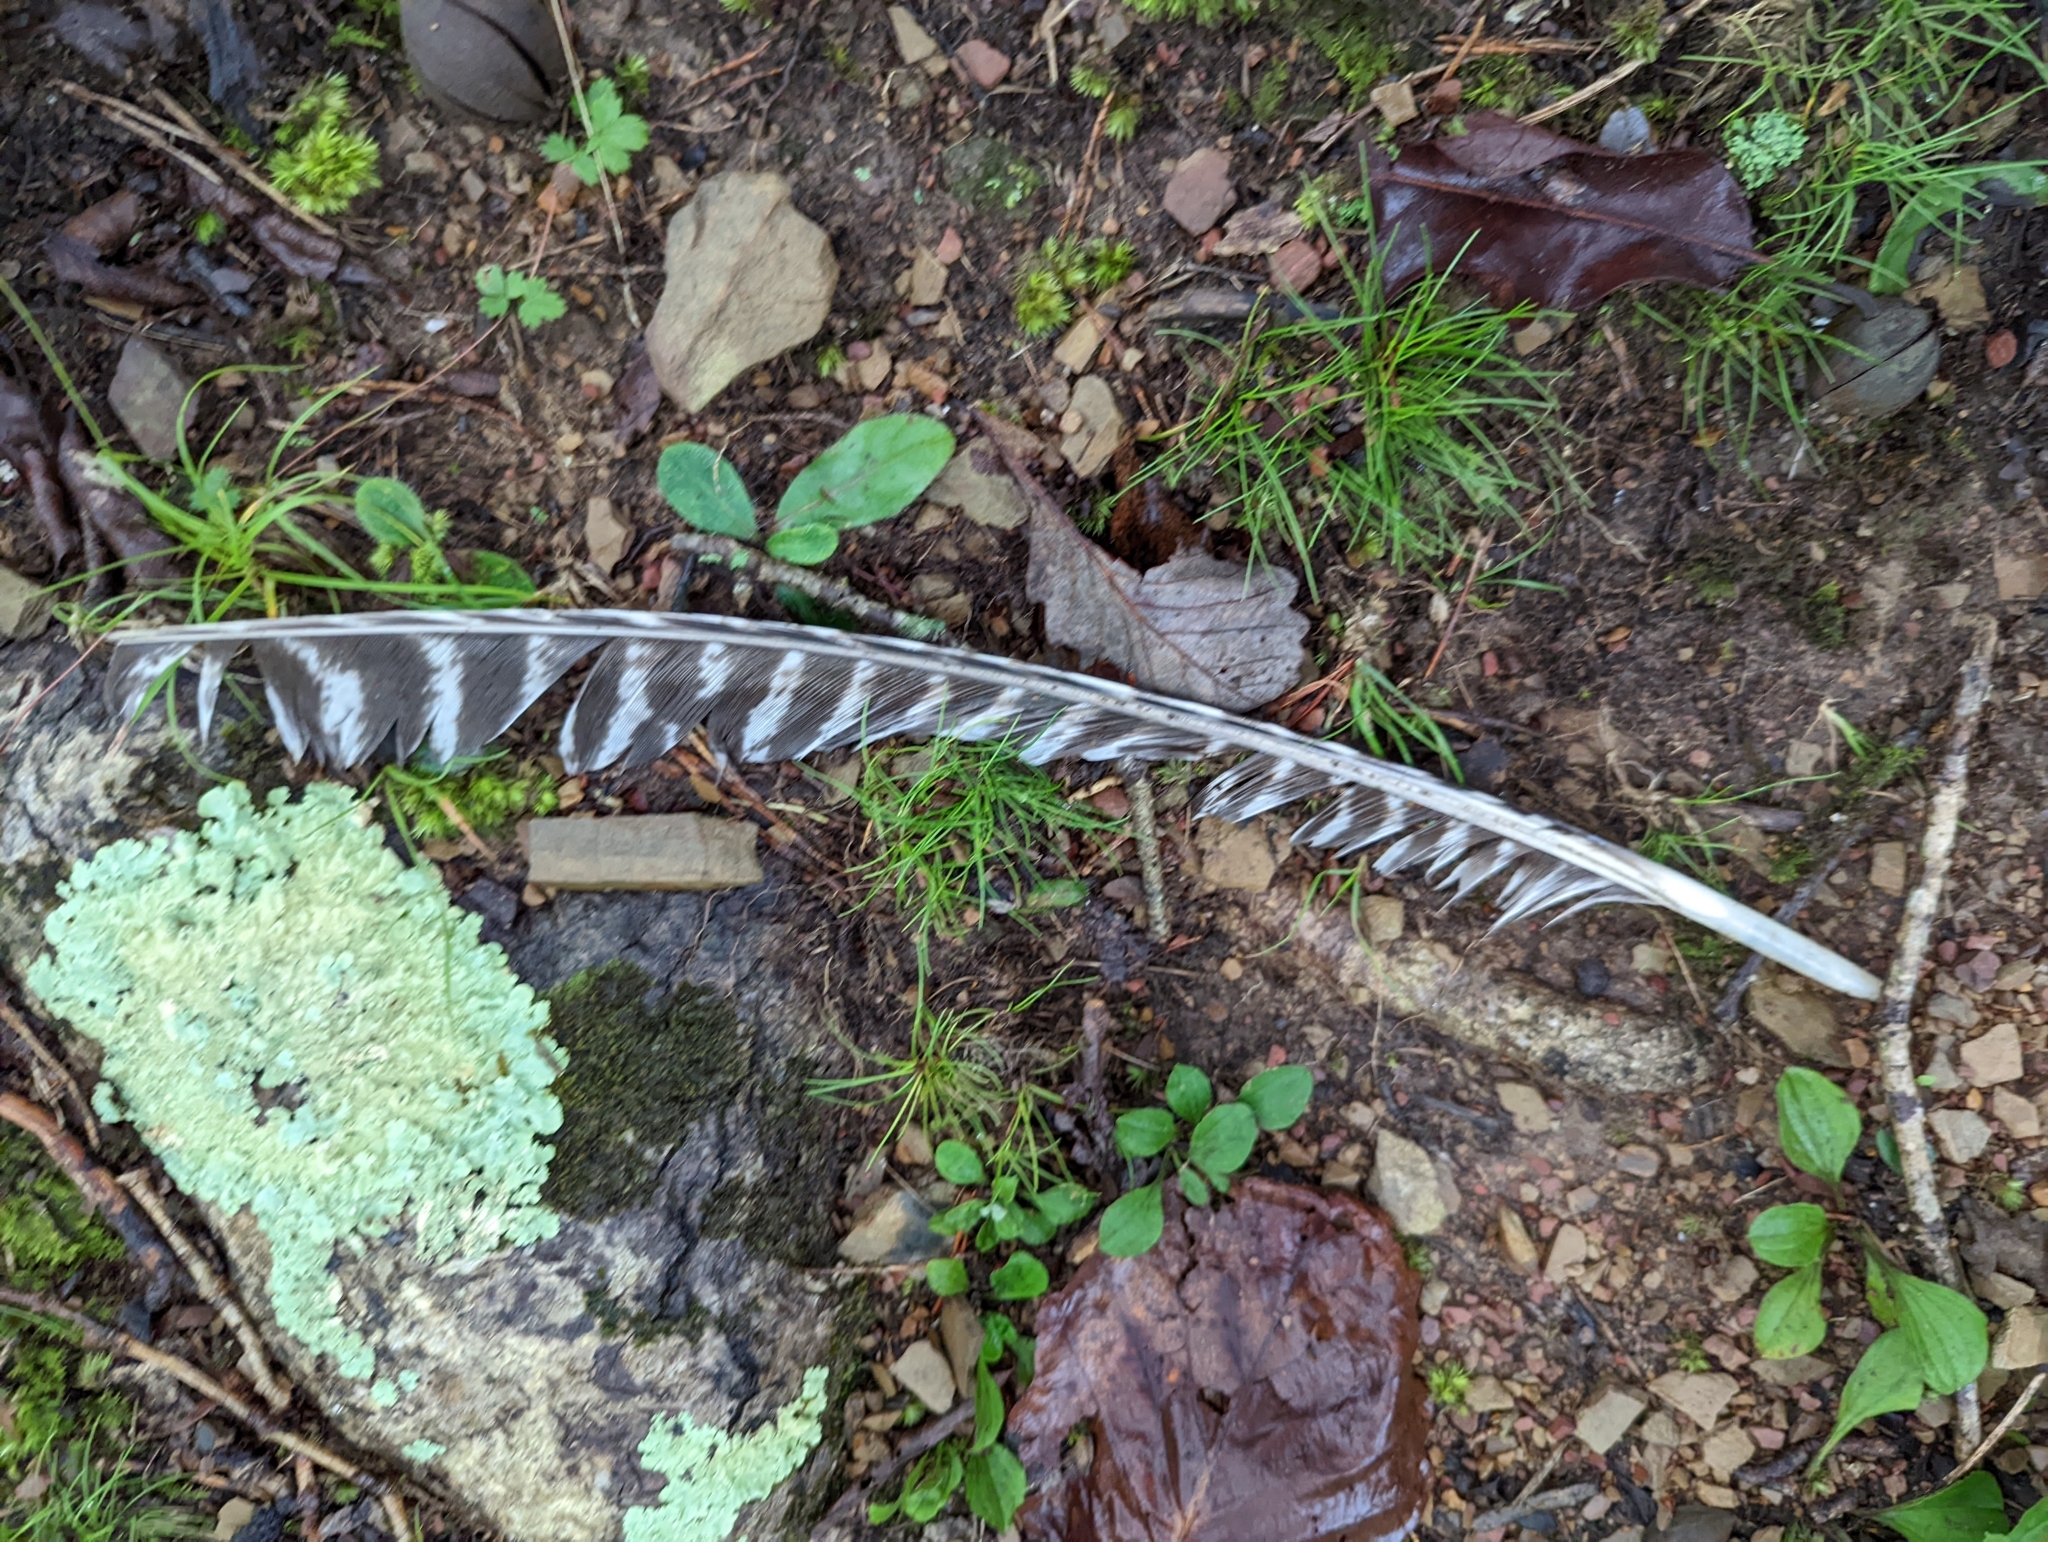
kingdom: Animalia
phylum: Chordata
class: Aves
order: Galliformes
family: Phasianidae
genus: Meleagris
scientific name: Meleagris gallopavo
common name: Wild turkey
